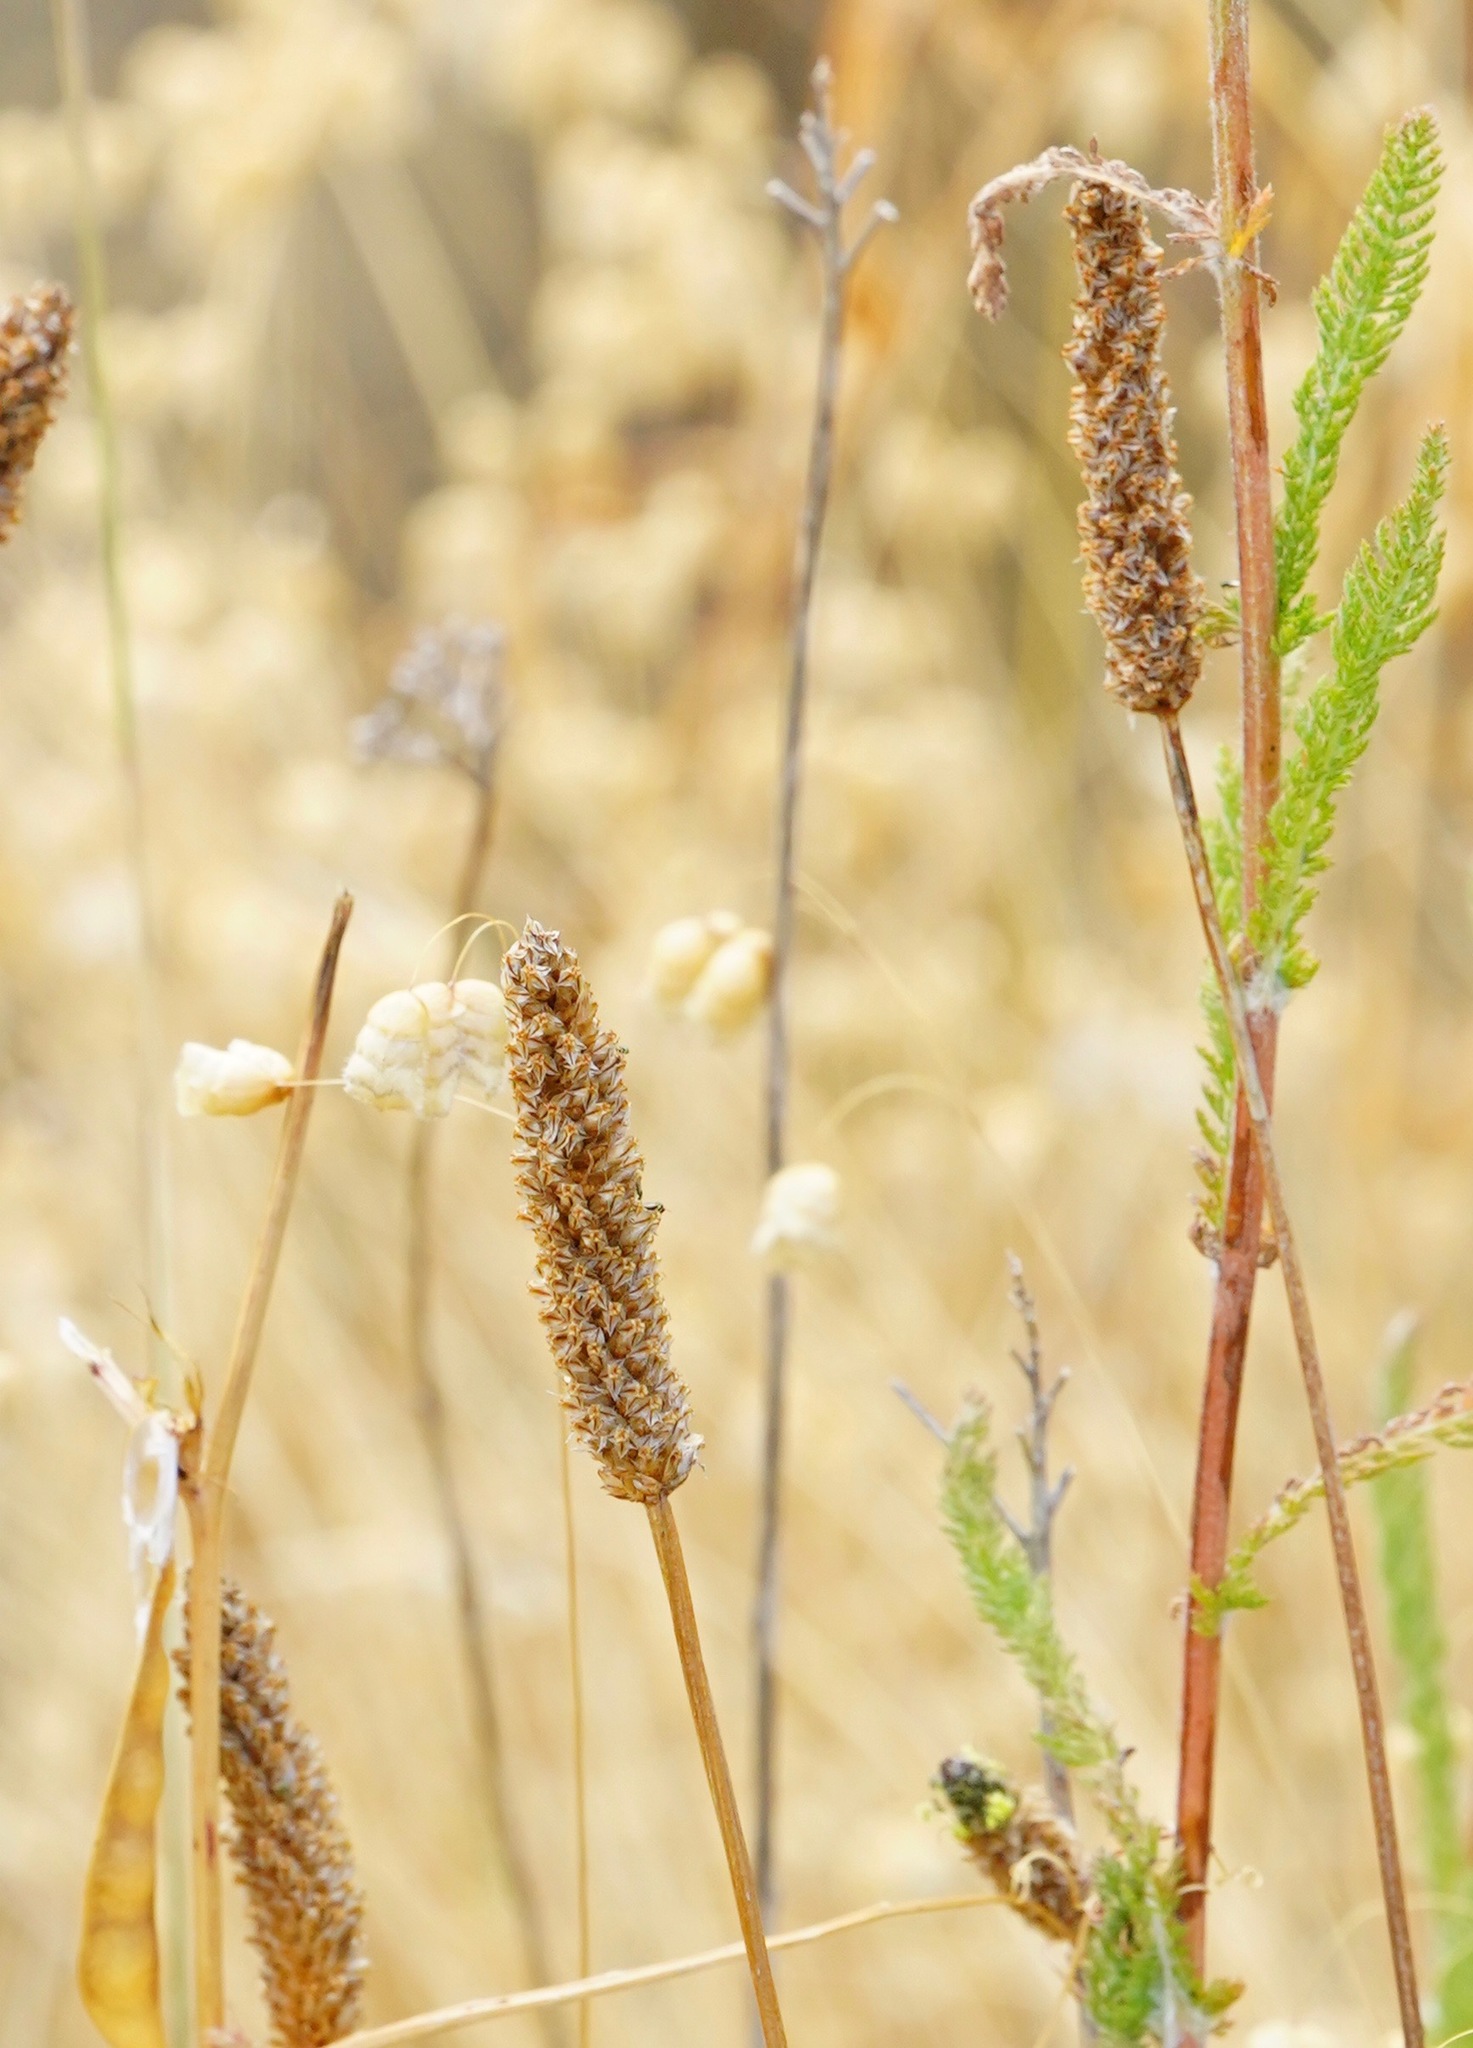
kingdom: Plantae
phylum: Tracheophyta
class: Magnoliopsida
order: Lamiales
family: Plantaginaceae
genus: Plantago
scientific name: Plantago lanceolata
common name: Ribwort plantain
